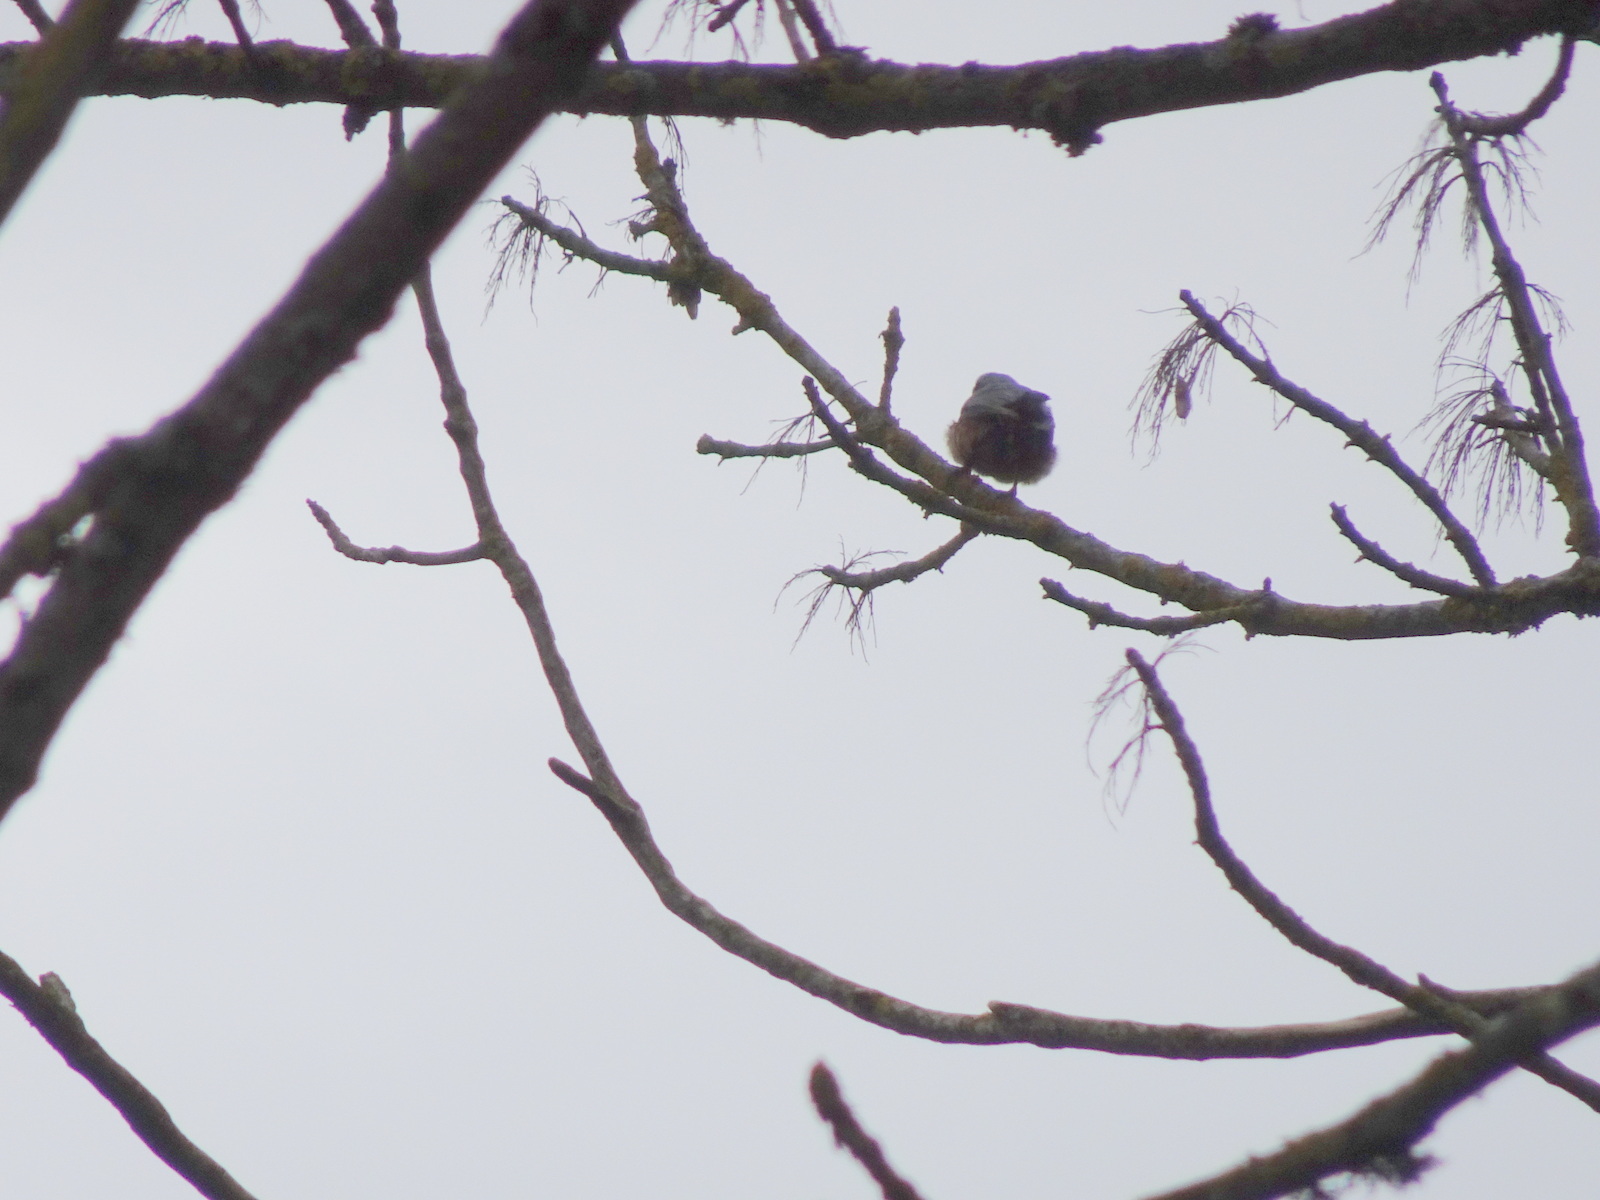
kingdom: Animalia
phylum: Chordata
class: Aves
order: Passeriformes
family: Sittidae
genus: Sitta
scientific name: Sitta europaea
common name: Eurasian nuthatch
